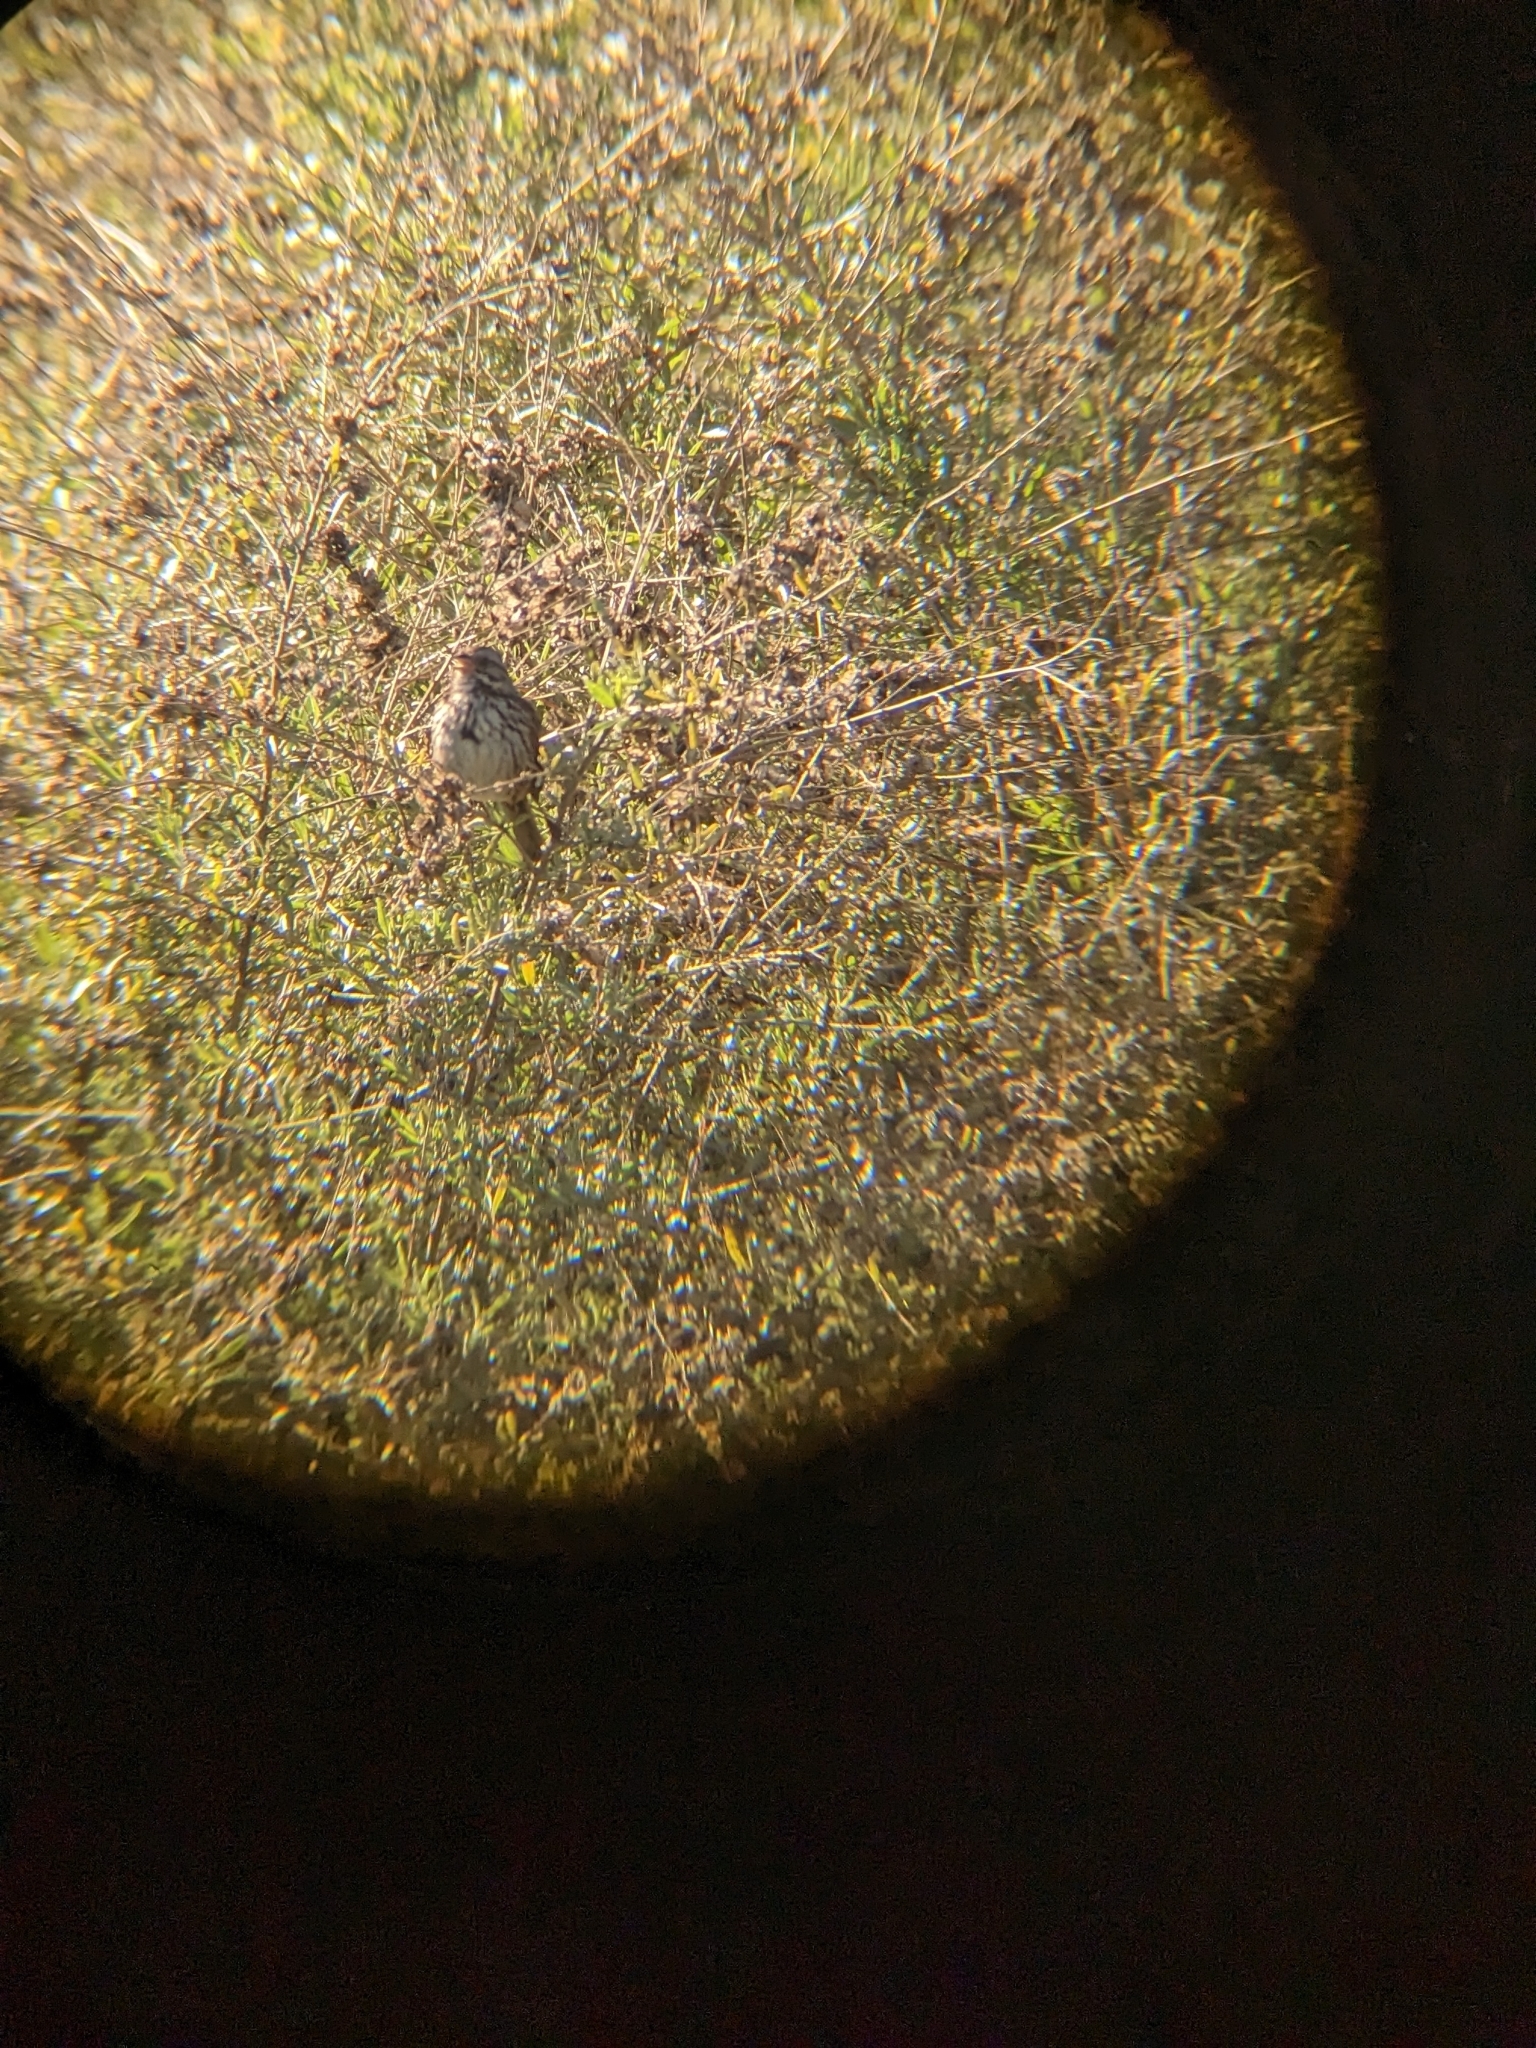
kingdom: Animalia
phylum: Chordata
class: Aves
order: Passeriformes
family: Passerellidae
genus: Melospiza
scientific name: Melospiza melodia
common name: Song sparrow
